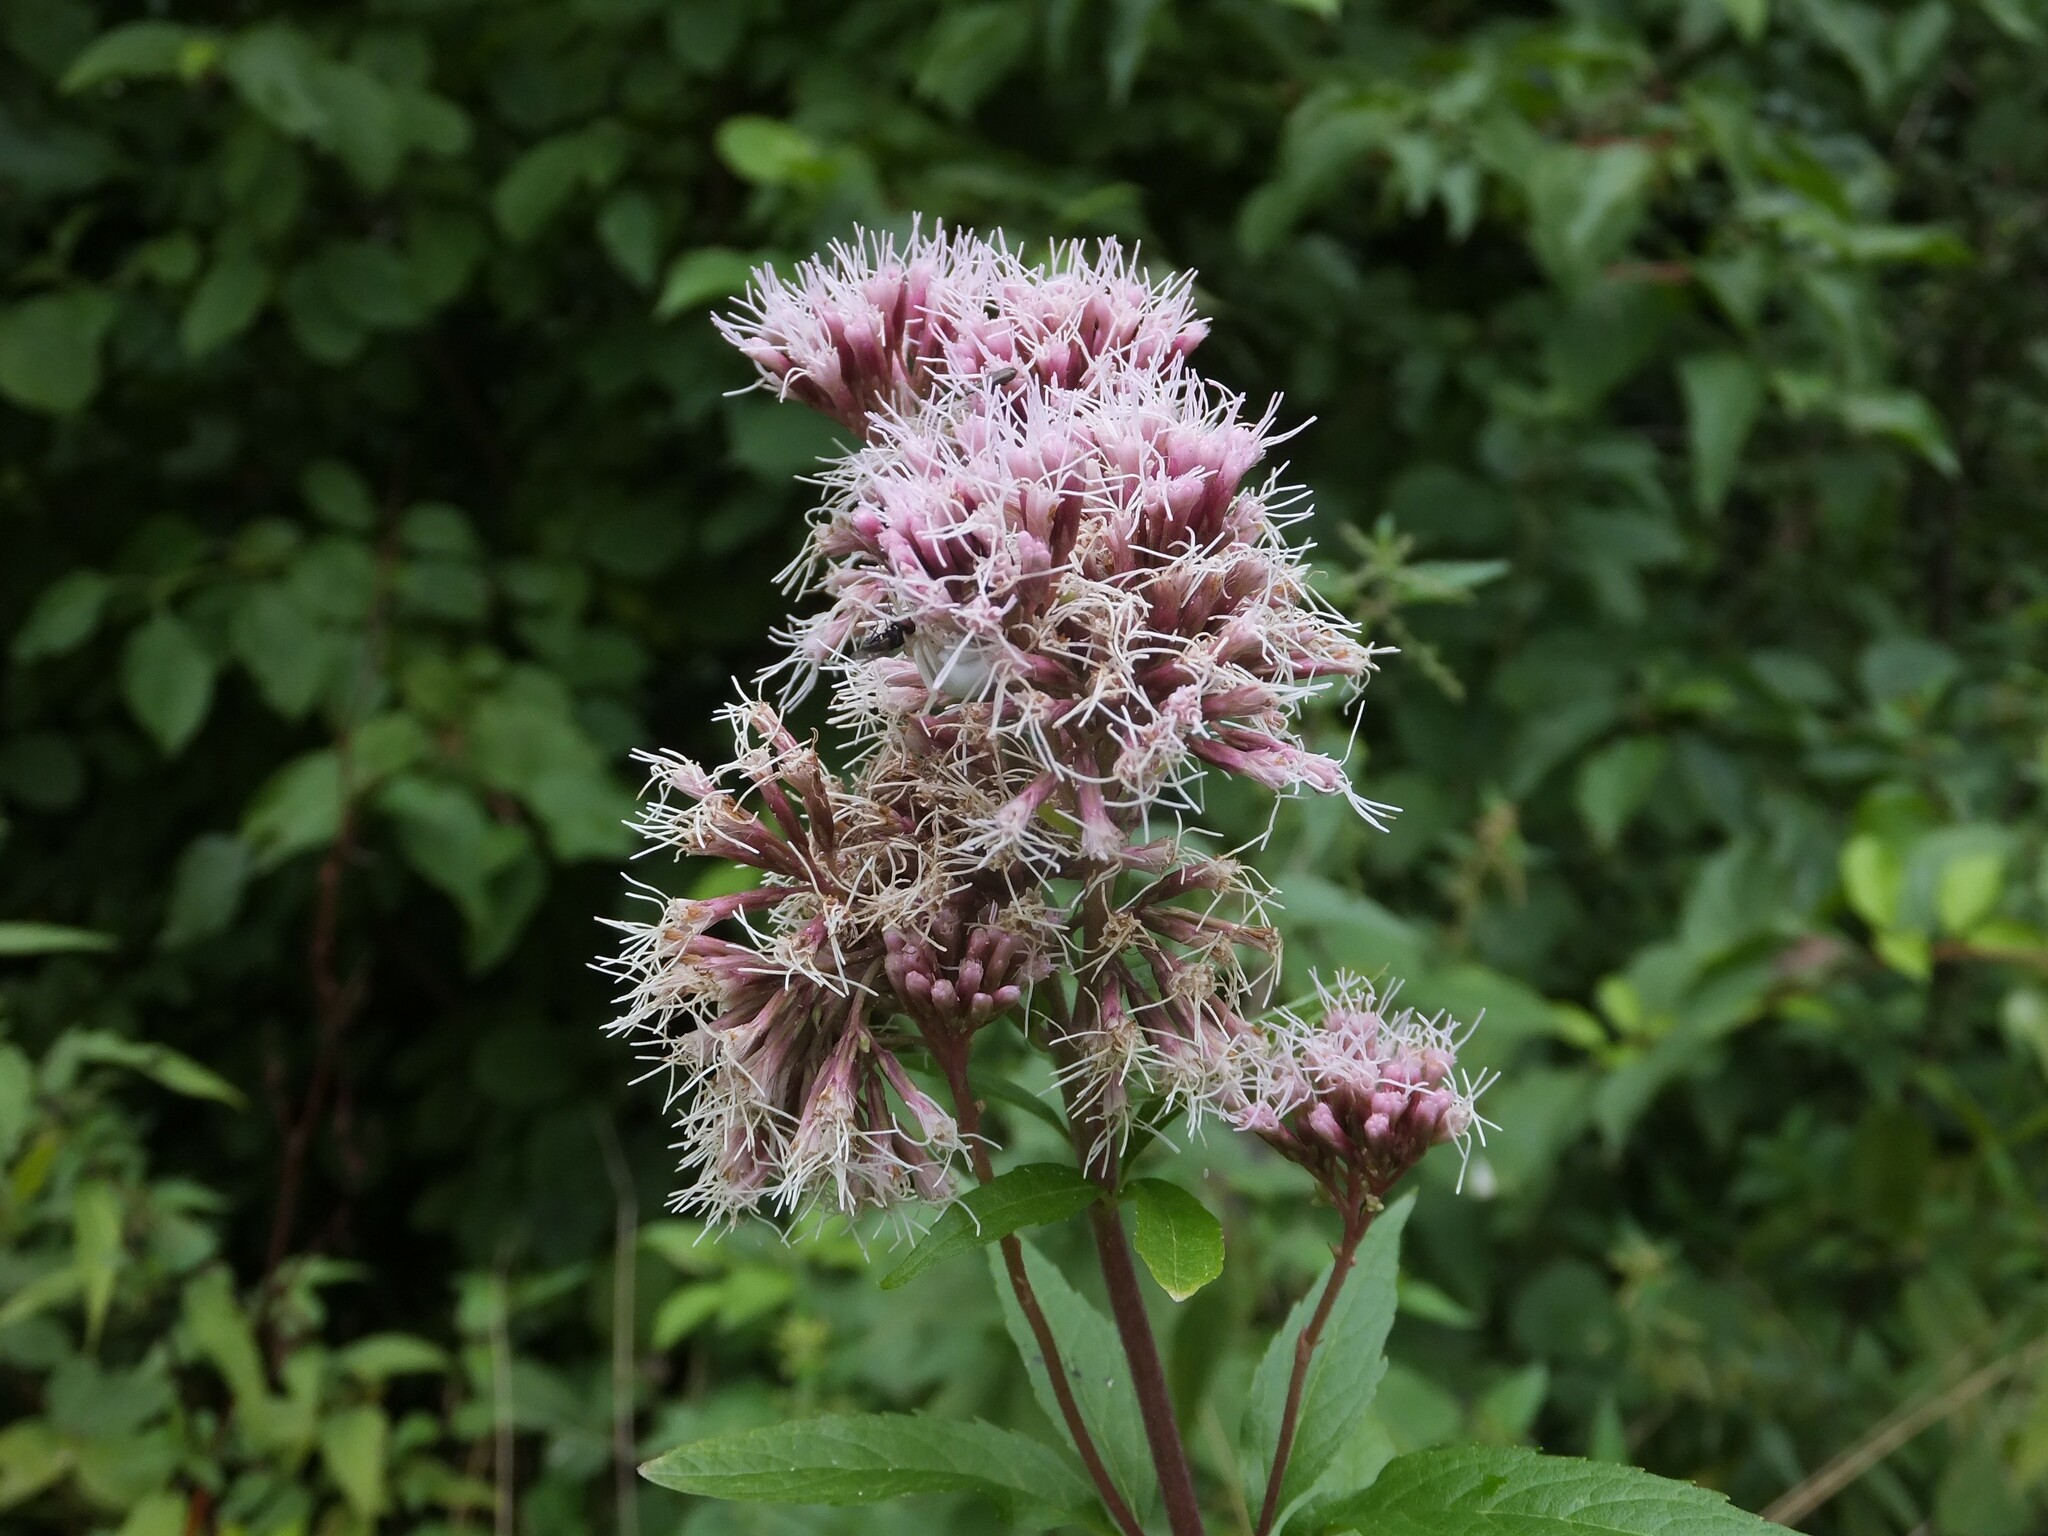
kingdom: Plantae
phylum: Tracheophyta
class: Magnoliopsida
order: Asterales
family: Asteraceae
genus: Eupatorium
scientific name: Eupatorium cannabinum
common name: Hemp-agrimony
